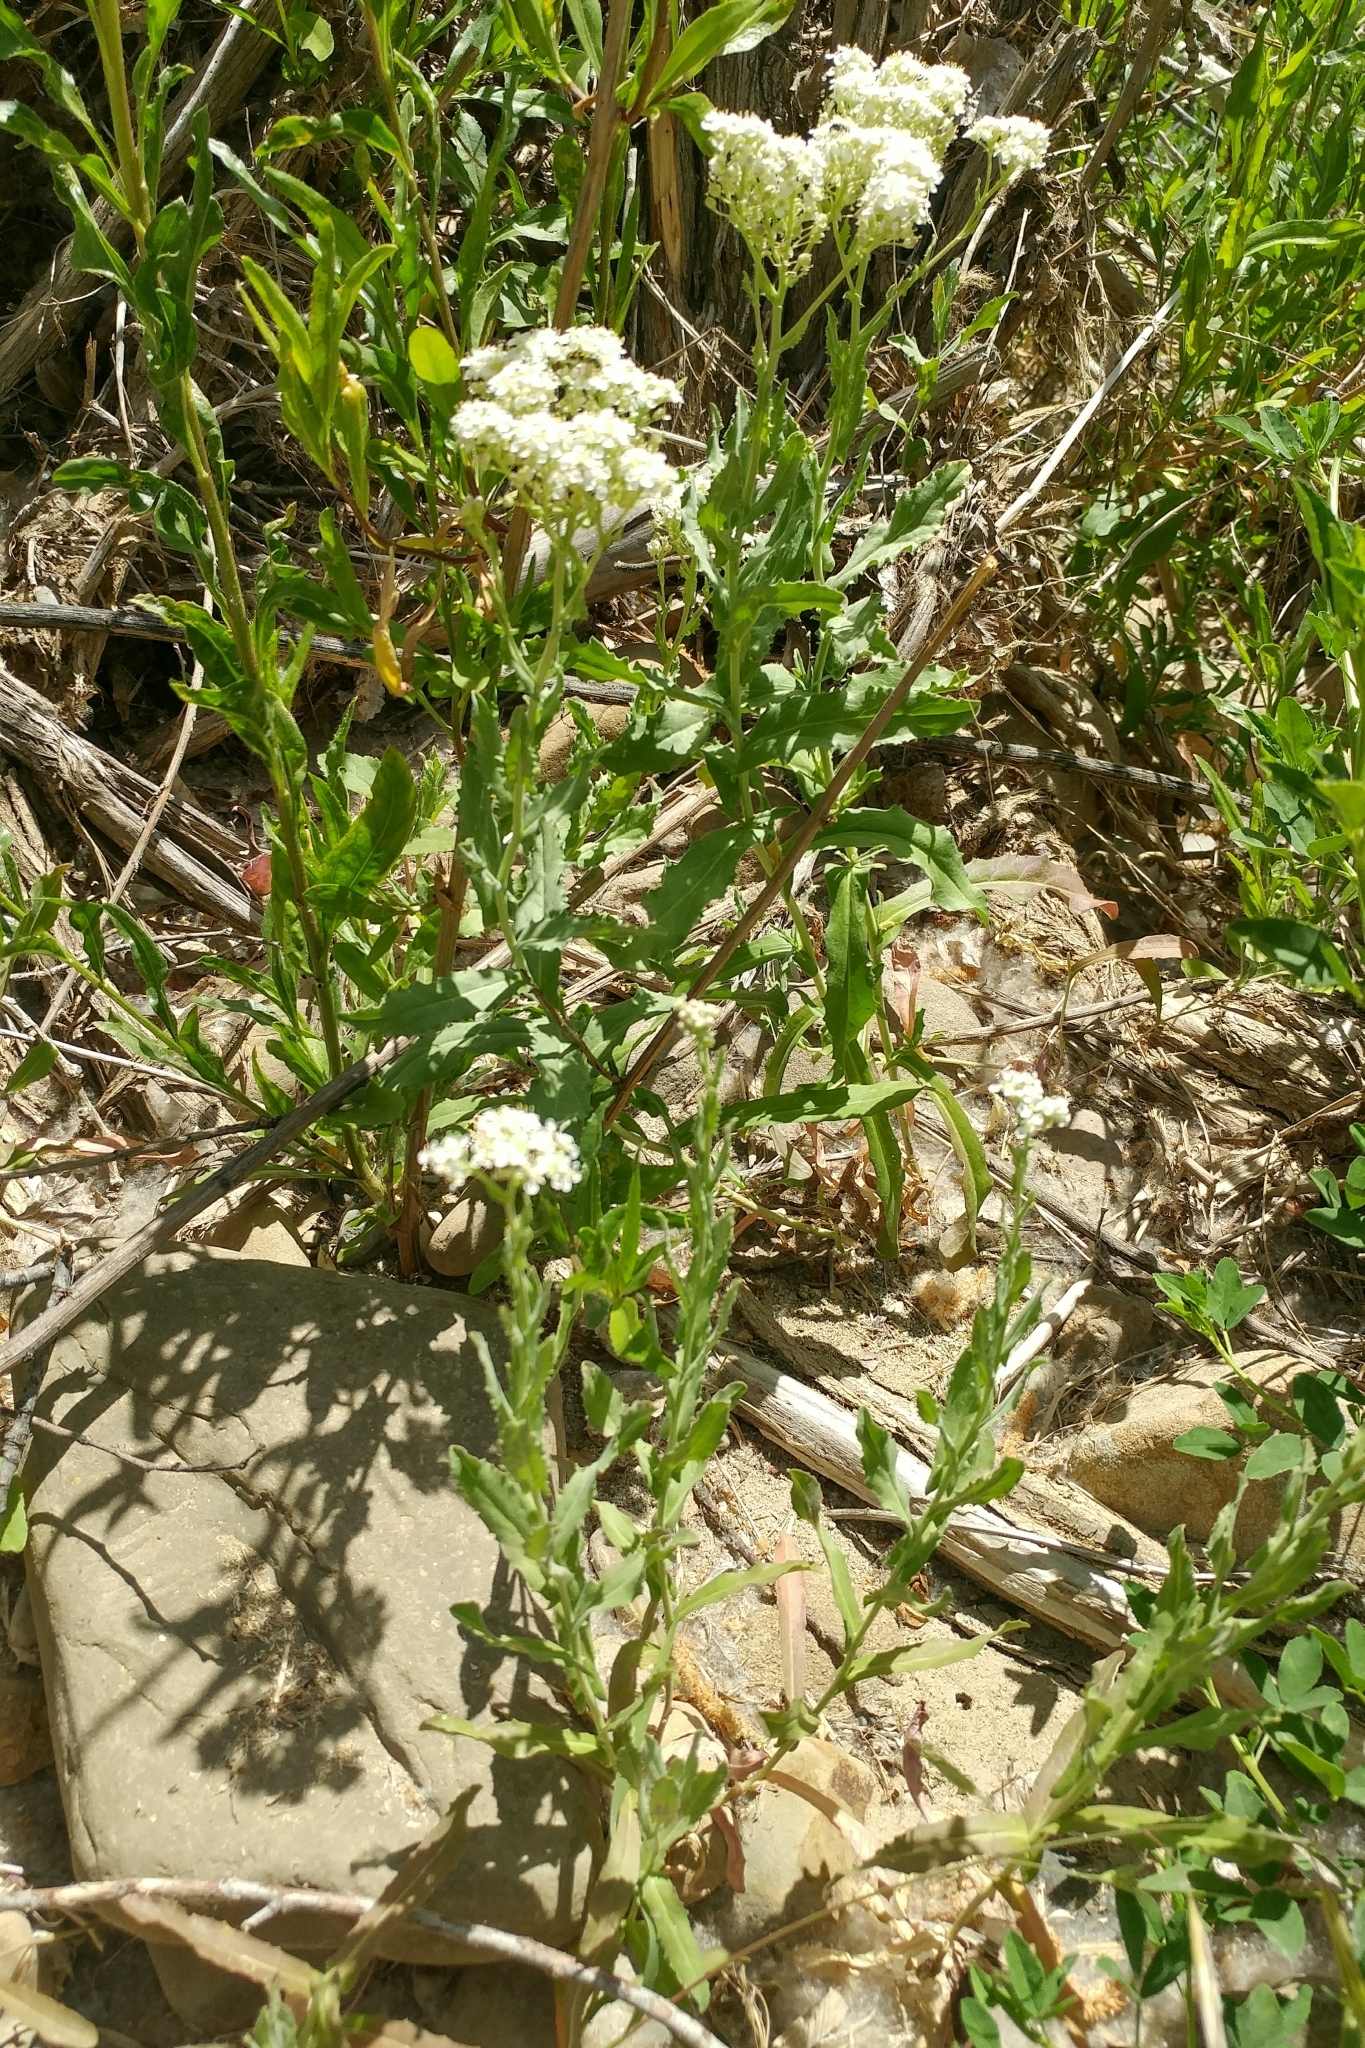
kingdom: Plantae
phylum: Tracheophyta
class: Magnoliopsida
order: Brassicales
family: Brassicaceae
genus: Lepidium
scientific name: Lepidium latifolium
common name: Dittander
